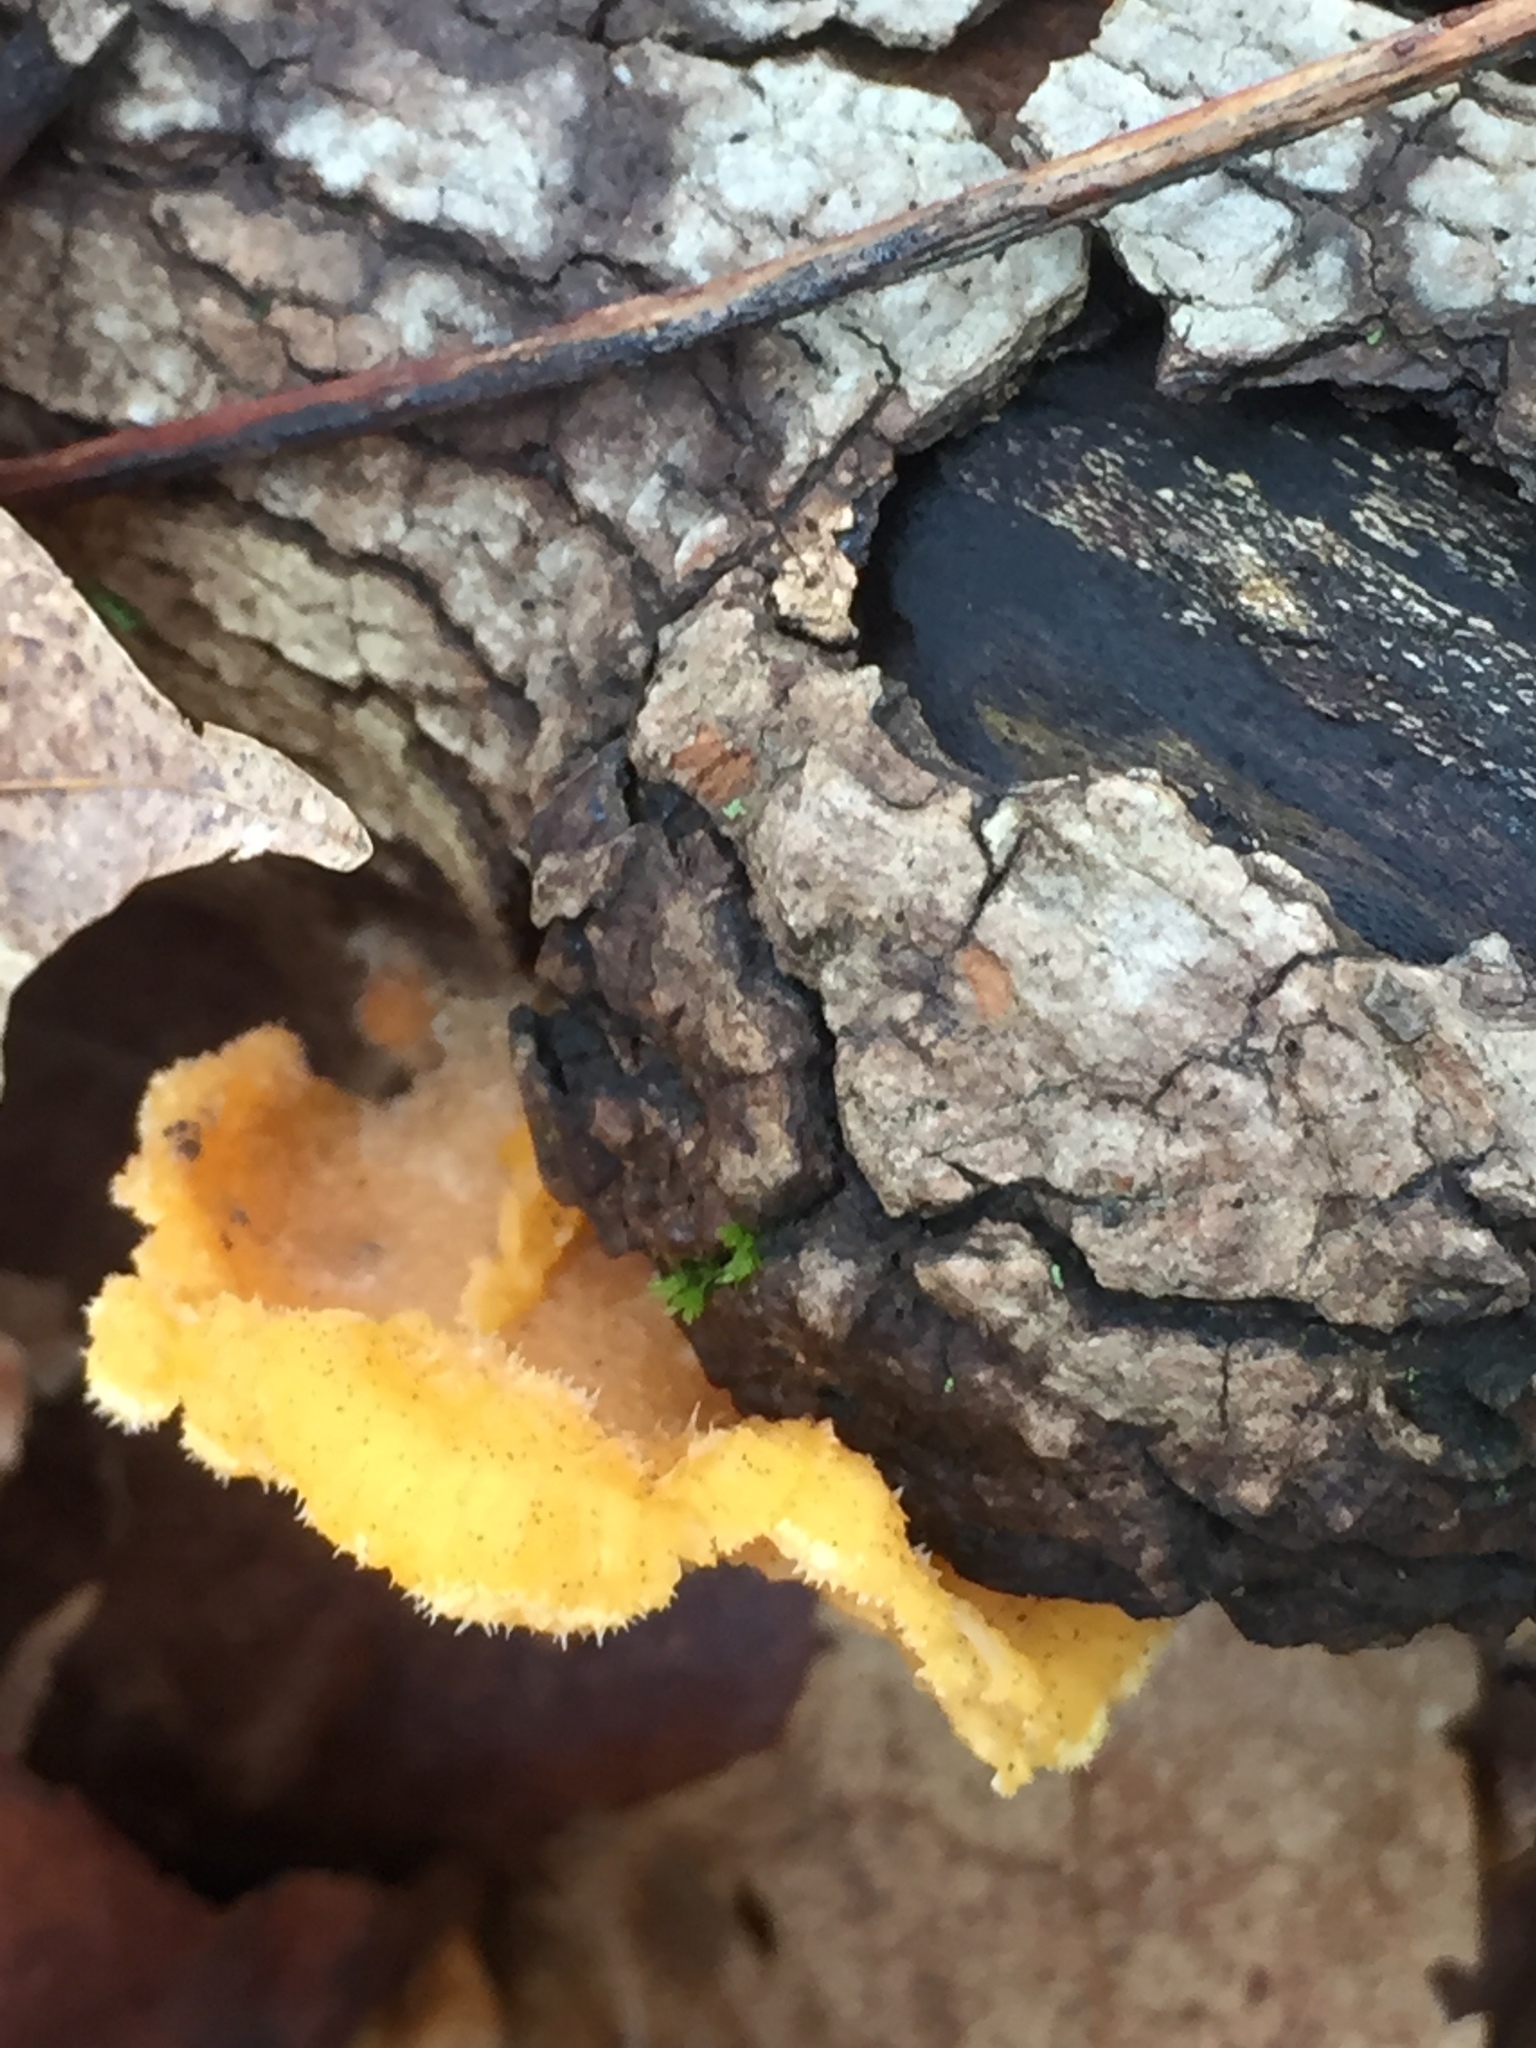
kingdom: Fungi
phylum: Basidiomycota
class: Agaricomycetes
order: Agaricales
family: Phyllotopsidaceae
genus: Phyllotopsis
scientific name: Phyllotopsis nidulans
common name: Orange mock oyster
